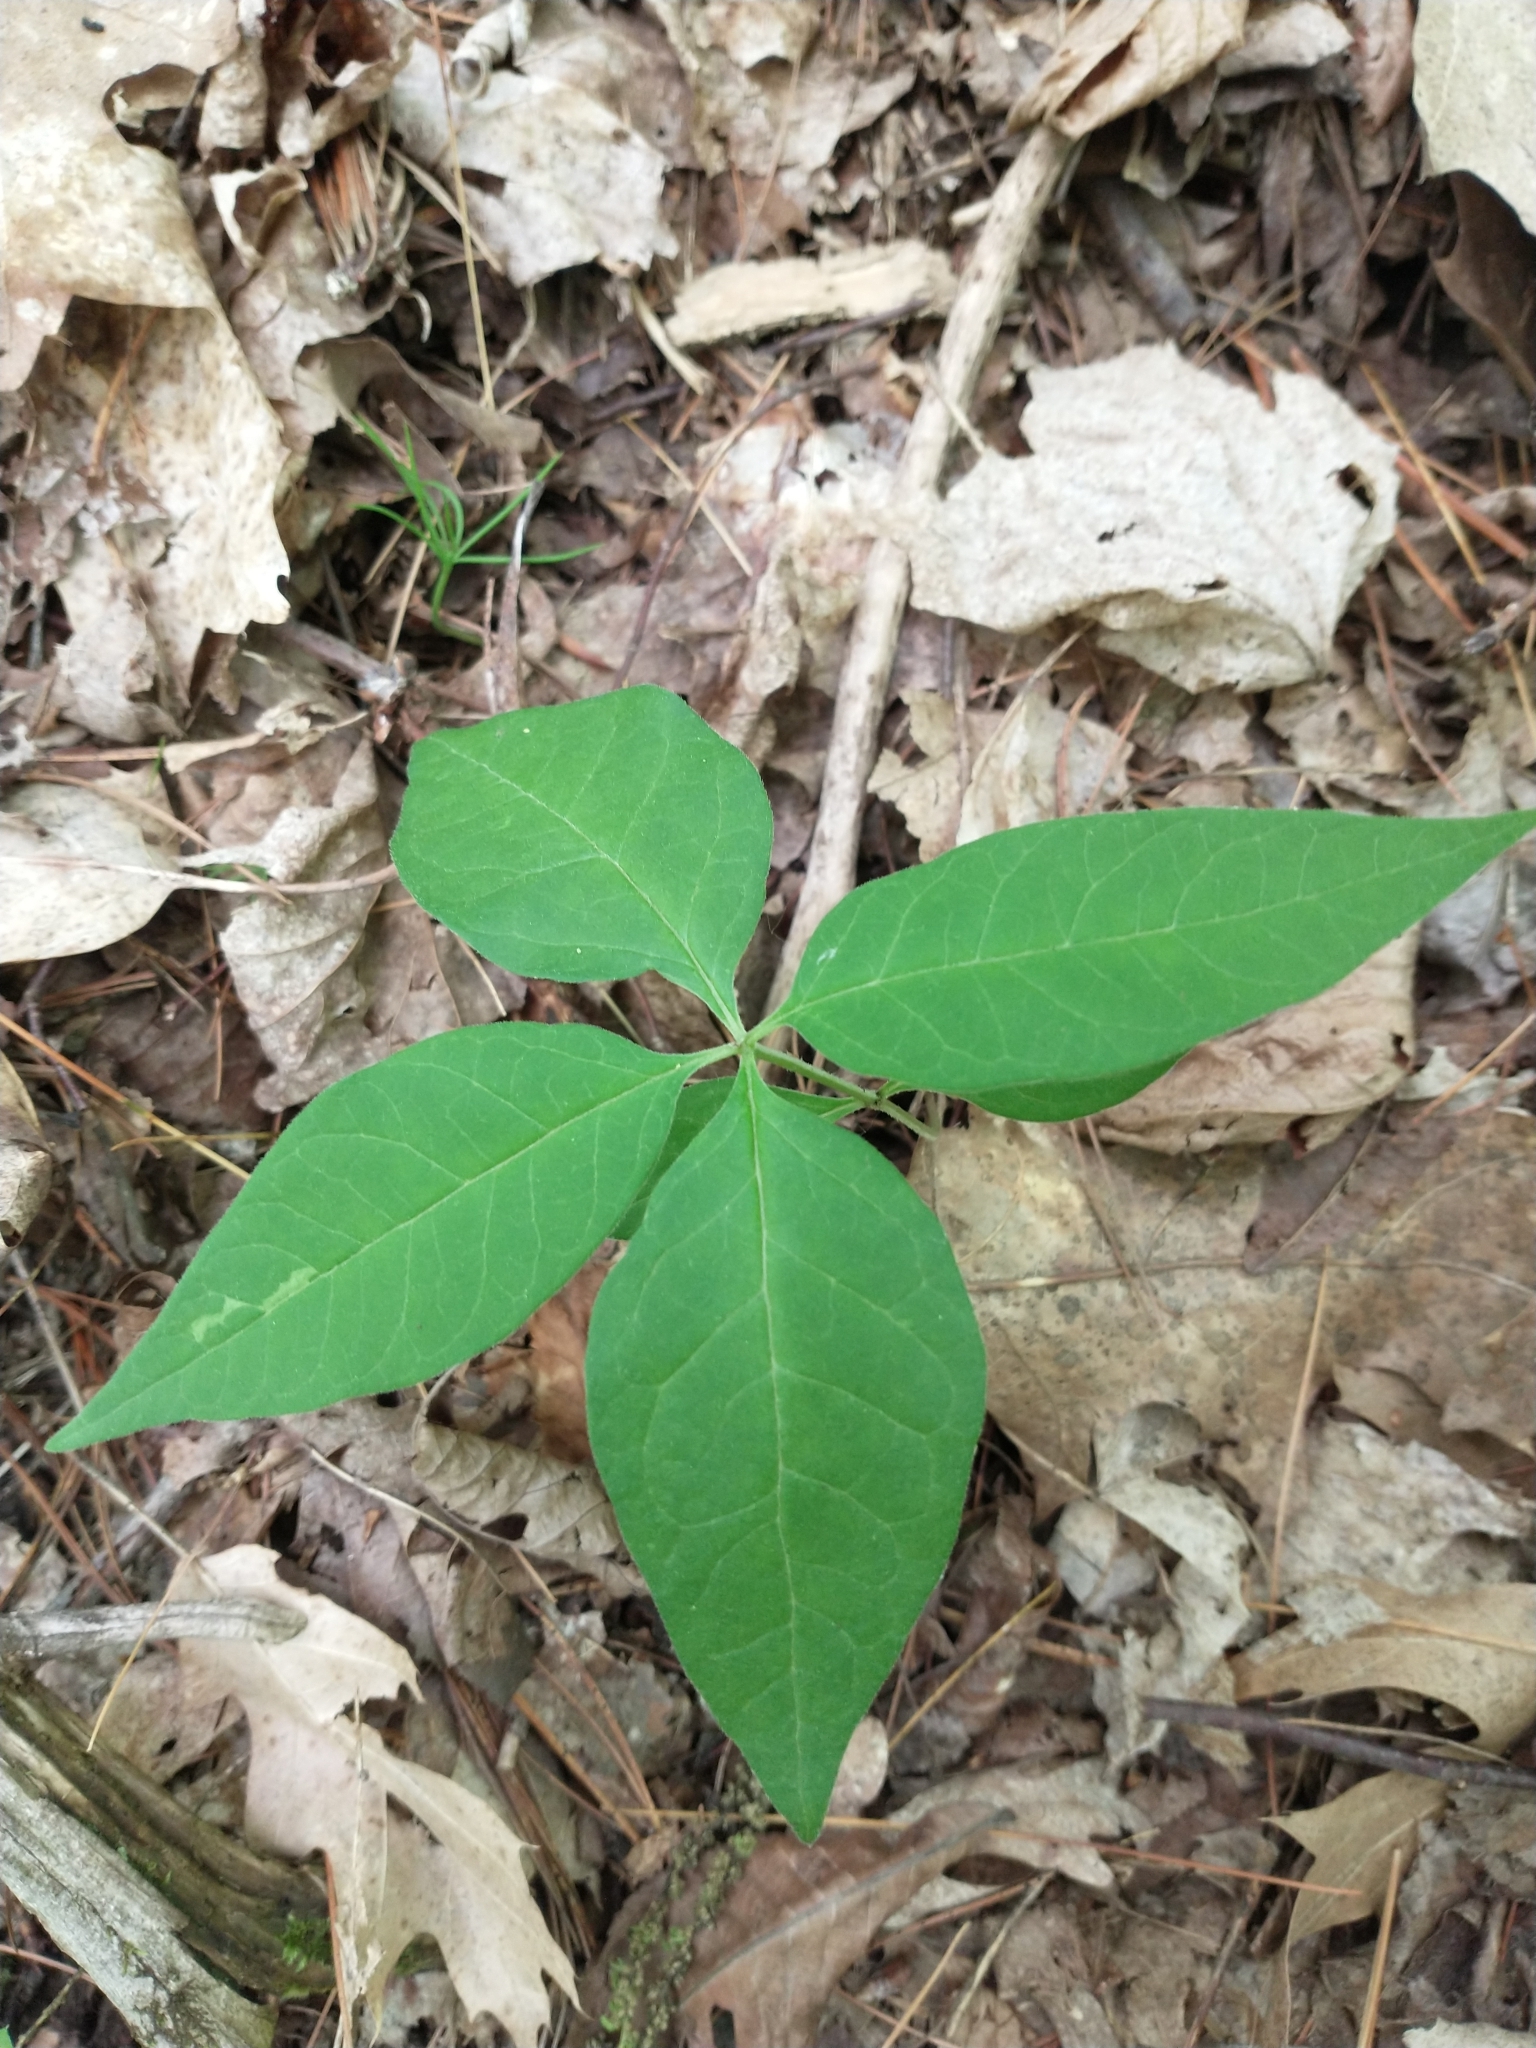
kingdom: Plantae
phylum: Tracheophyta
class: Magnoliopsida
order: Gentianales
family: Apocynaceae
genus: Asclepias
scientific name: Asclepias quadrifolia
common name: Whorled milkweed
